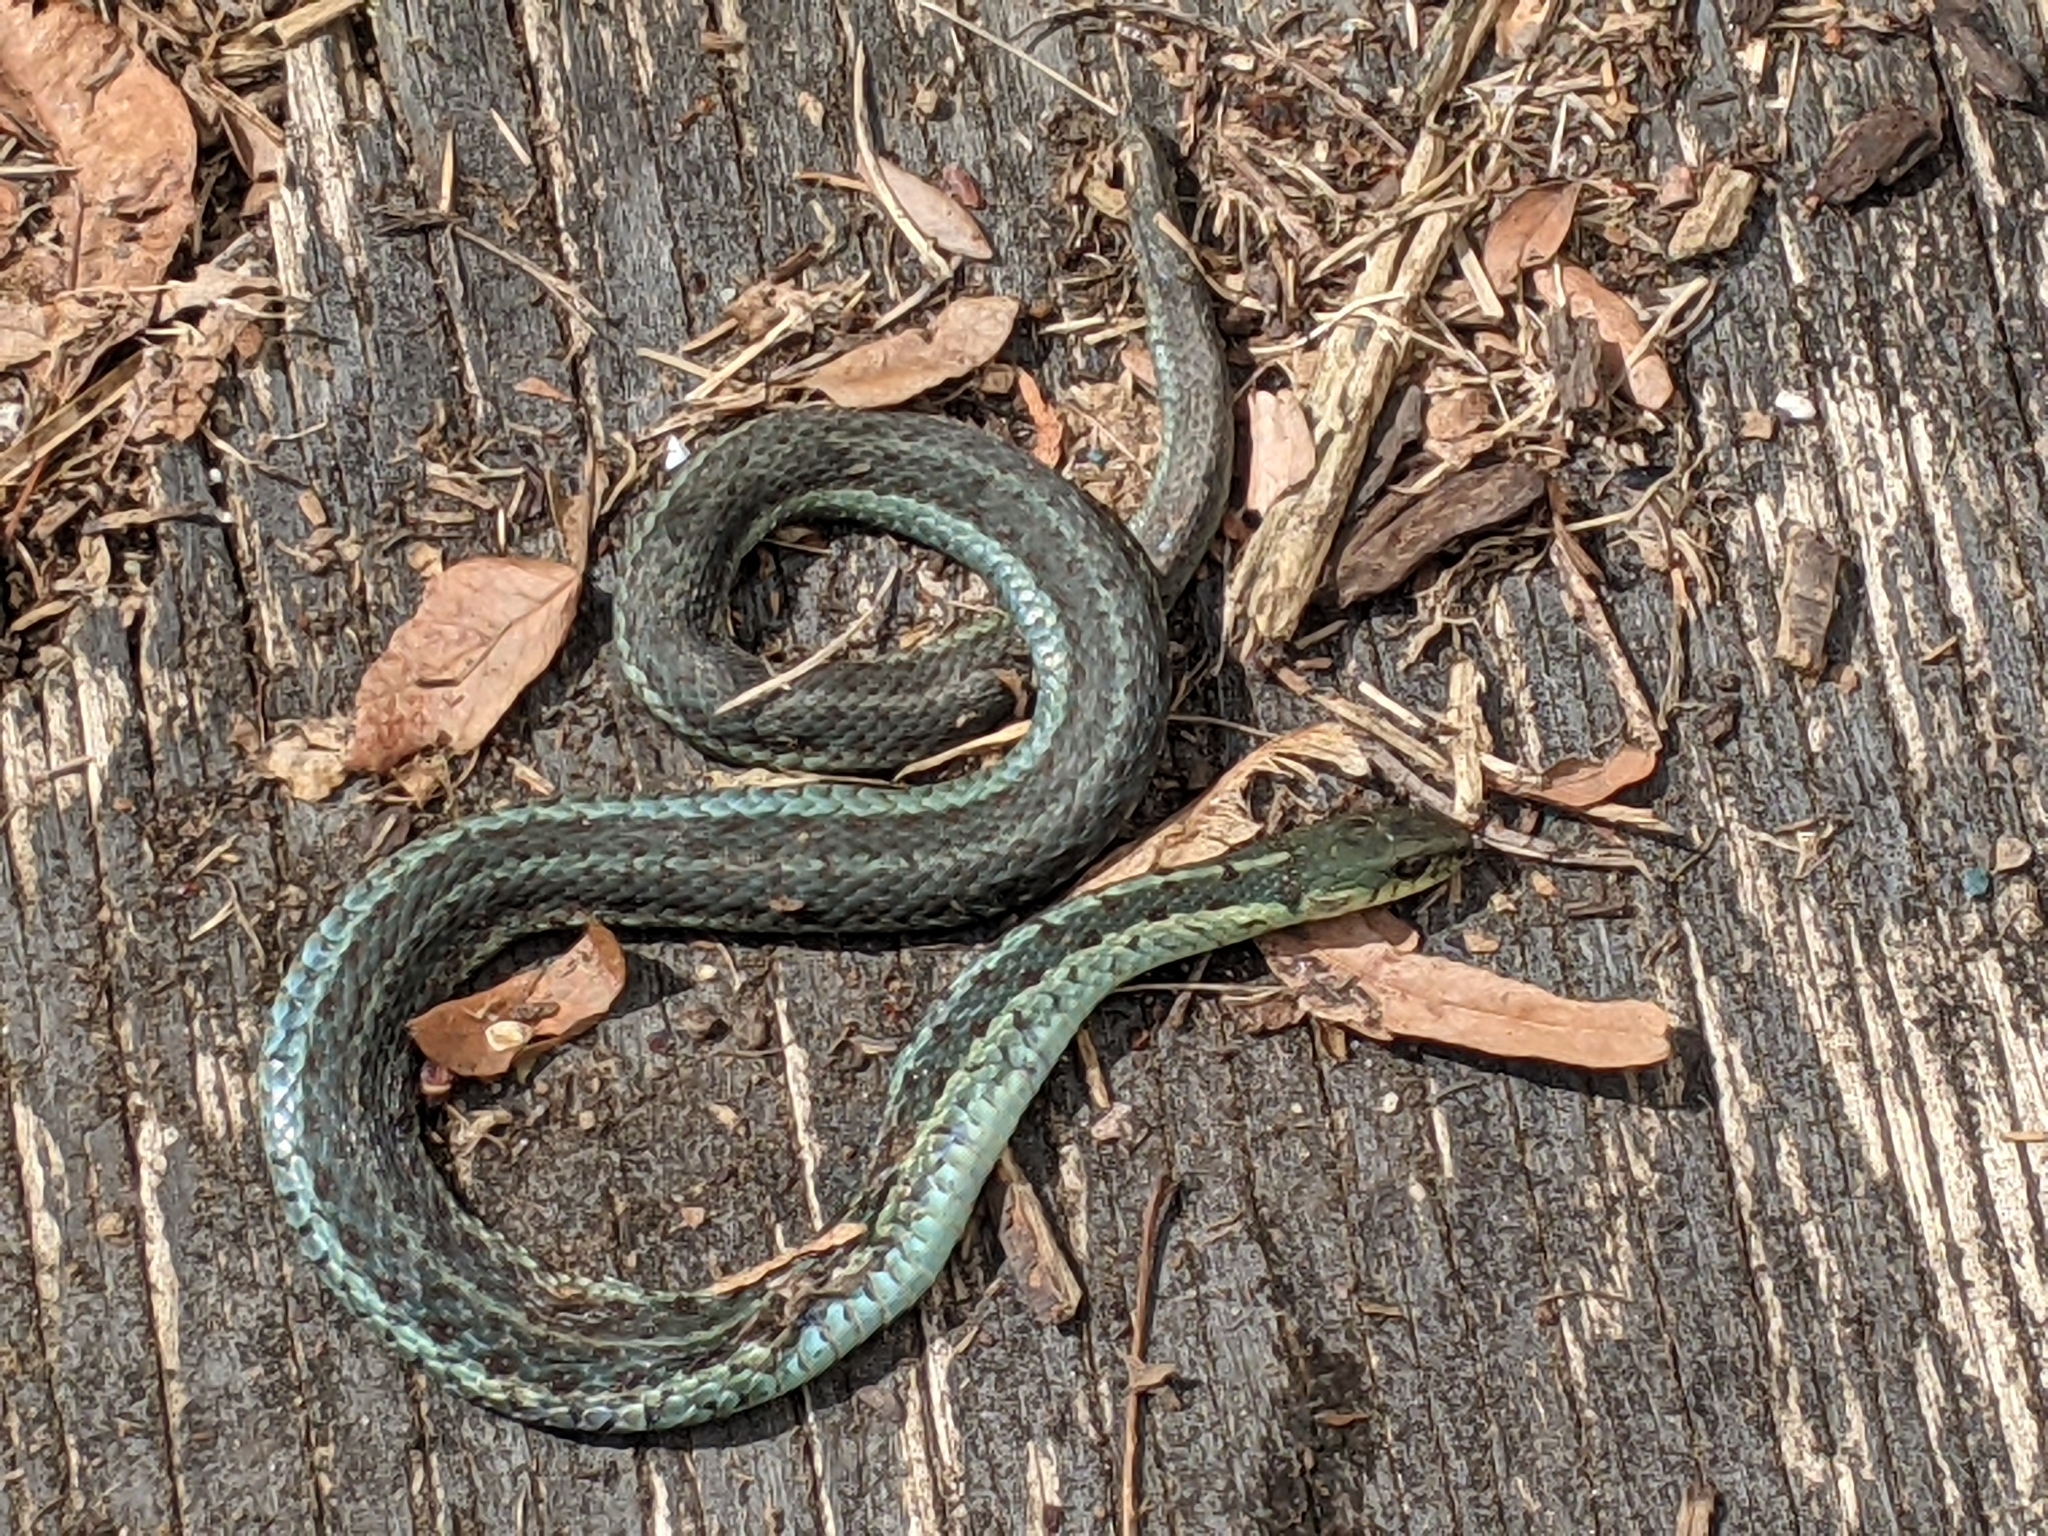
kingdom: Animalia
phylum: Chordata
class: Squamata
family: Colubridae
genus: Thamnophis
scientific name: Thamnophis sirtalis
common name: Common garter snake
